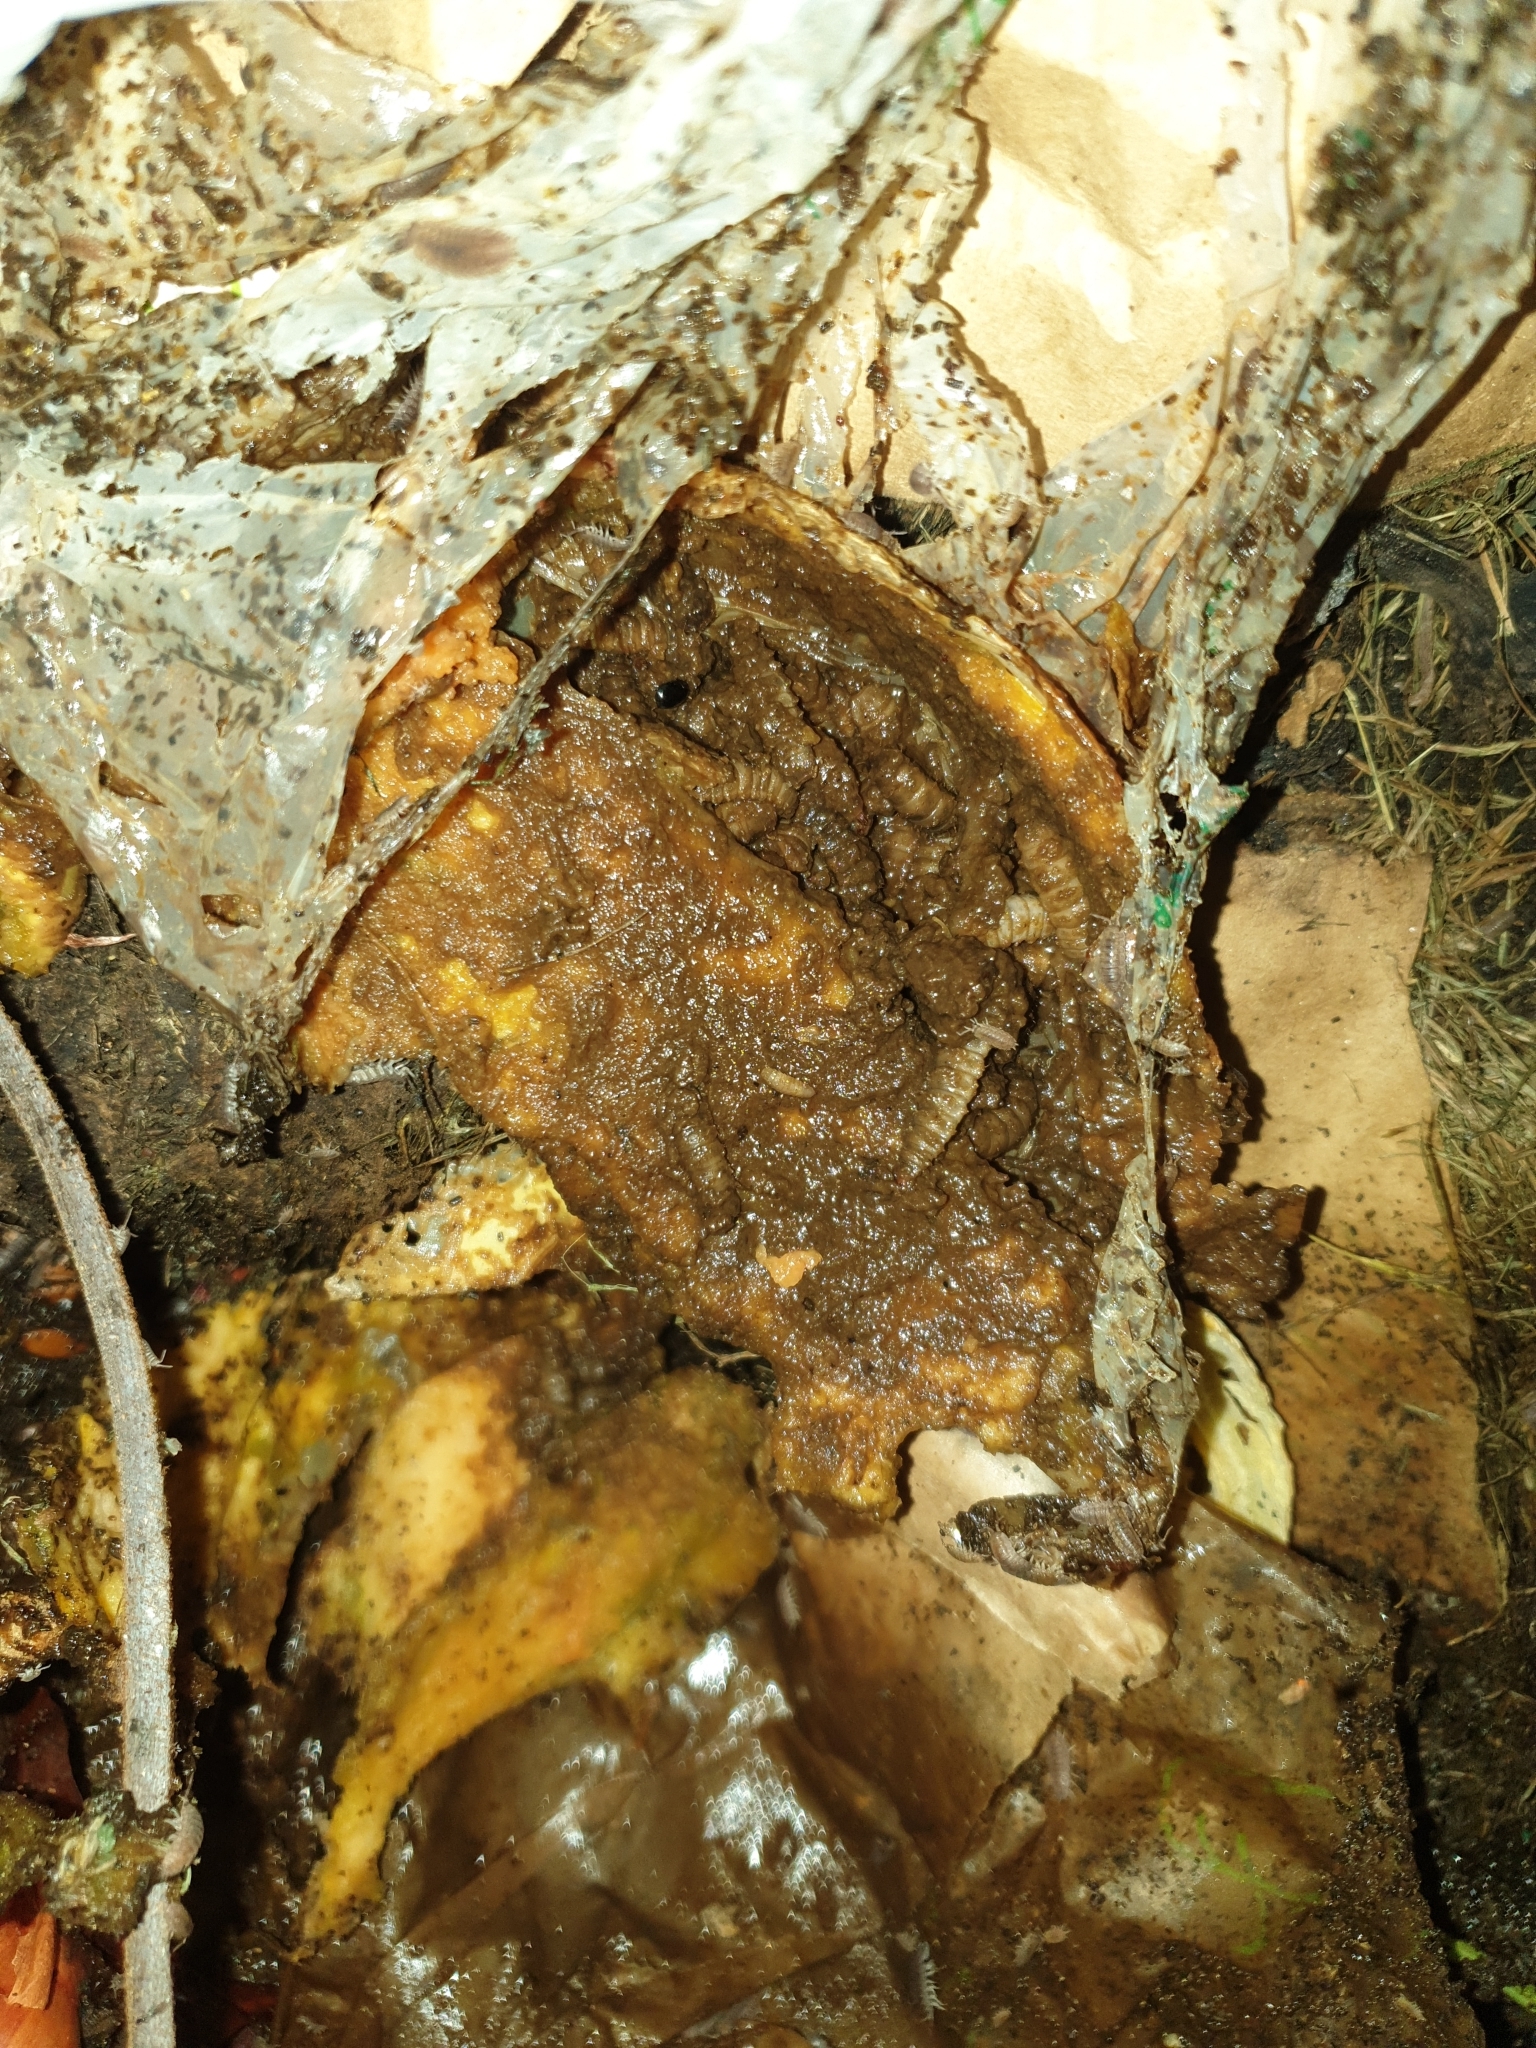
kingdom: Animalia
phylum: Arthropoda
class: Insecta
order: Diptera
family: Stratiomyidae
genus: Hermetia
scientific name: Hermetia illucens
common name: Black soldier fly
